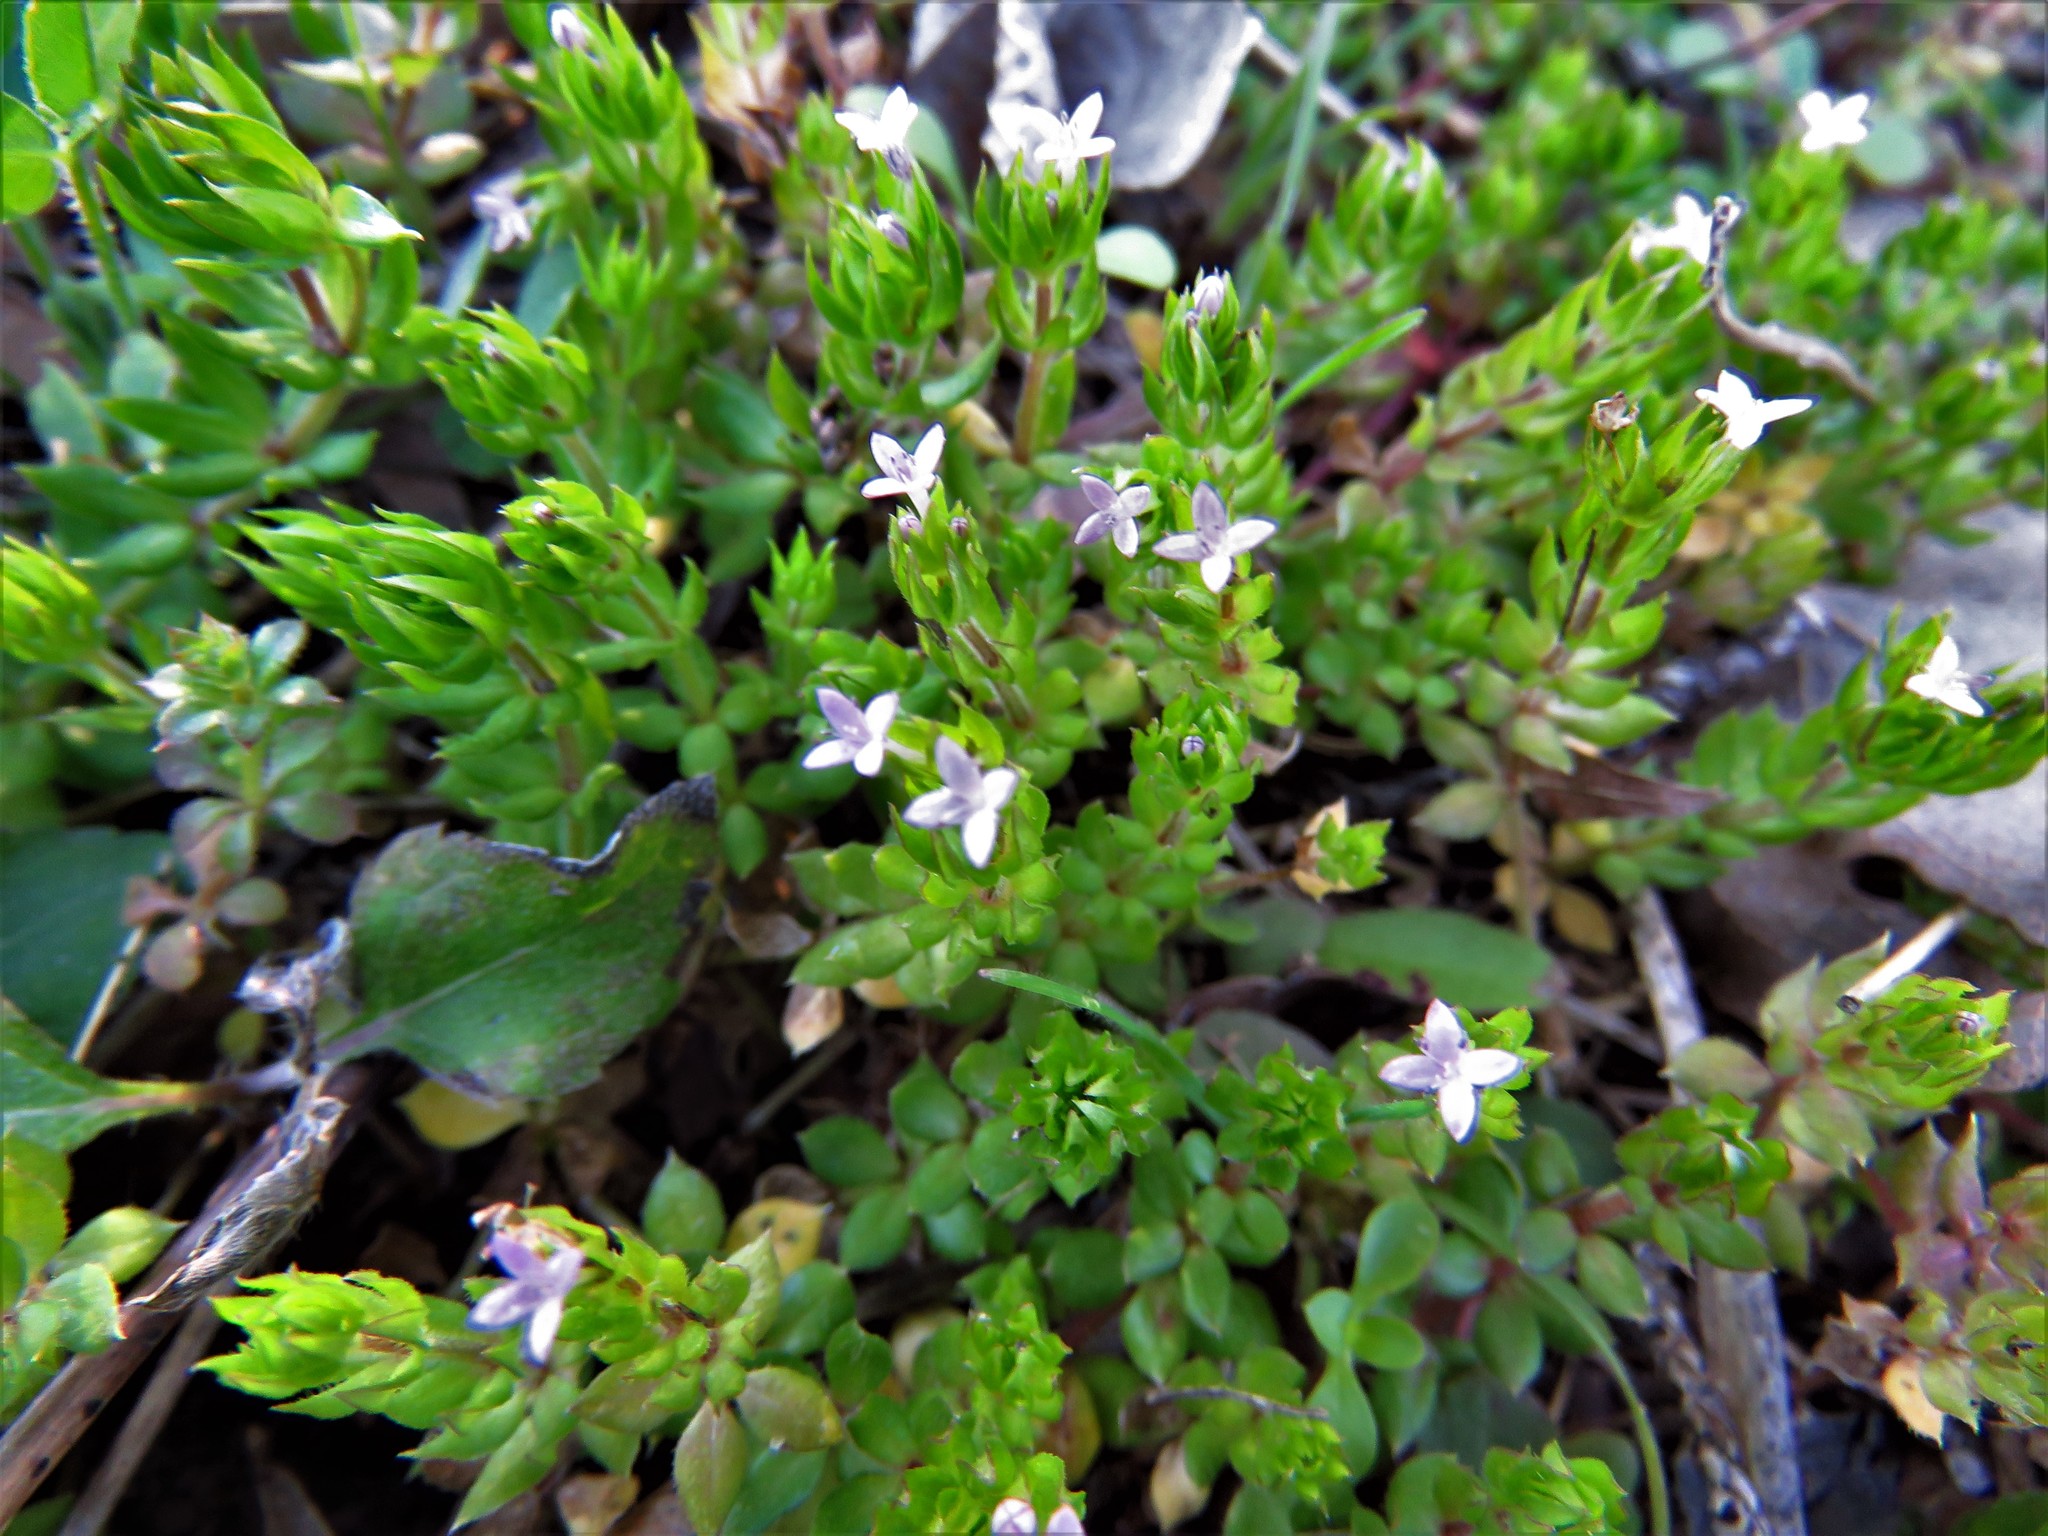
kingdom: Plantae
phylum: Tracheophyta
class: Magnoliopsida
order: Gentianales
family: Rubiaceae
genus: Sherardia
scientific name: Sherardia arvensis
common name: Field madder
